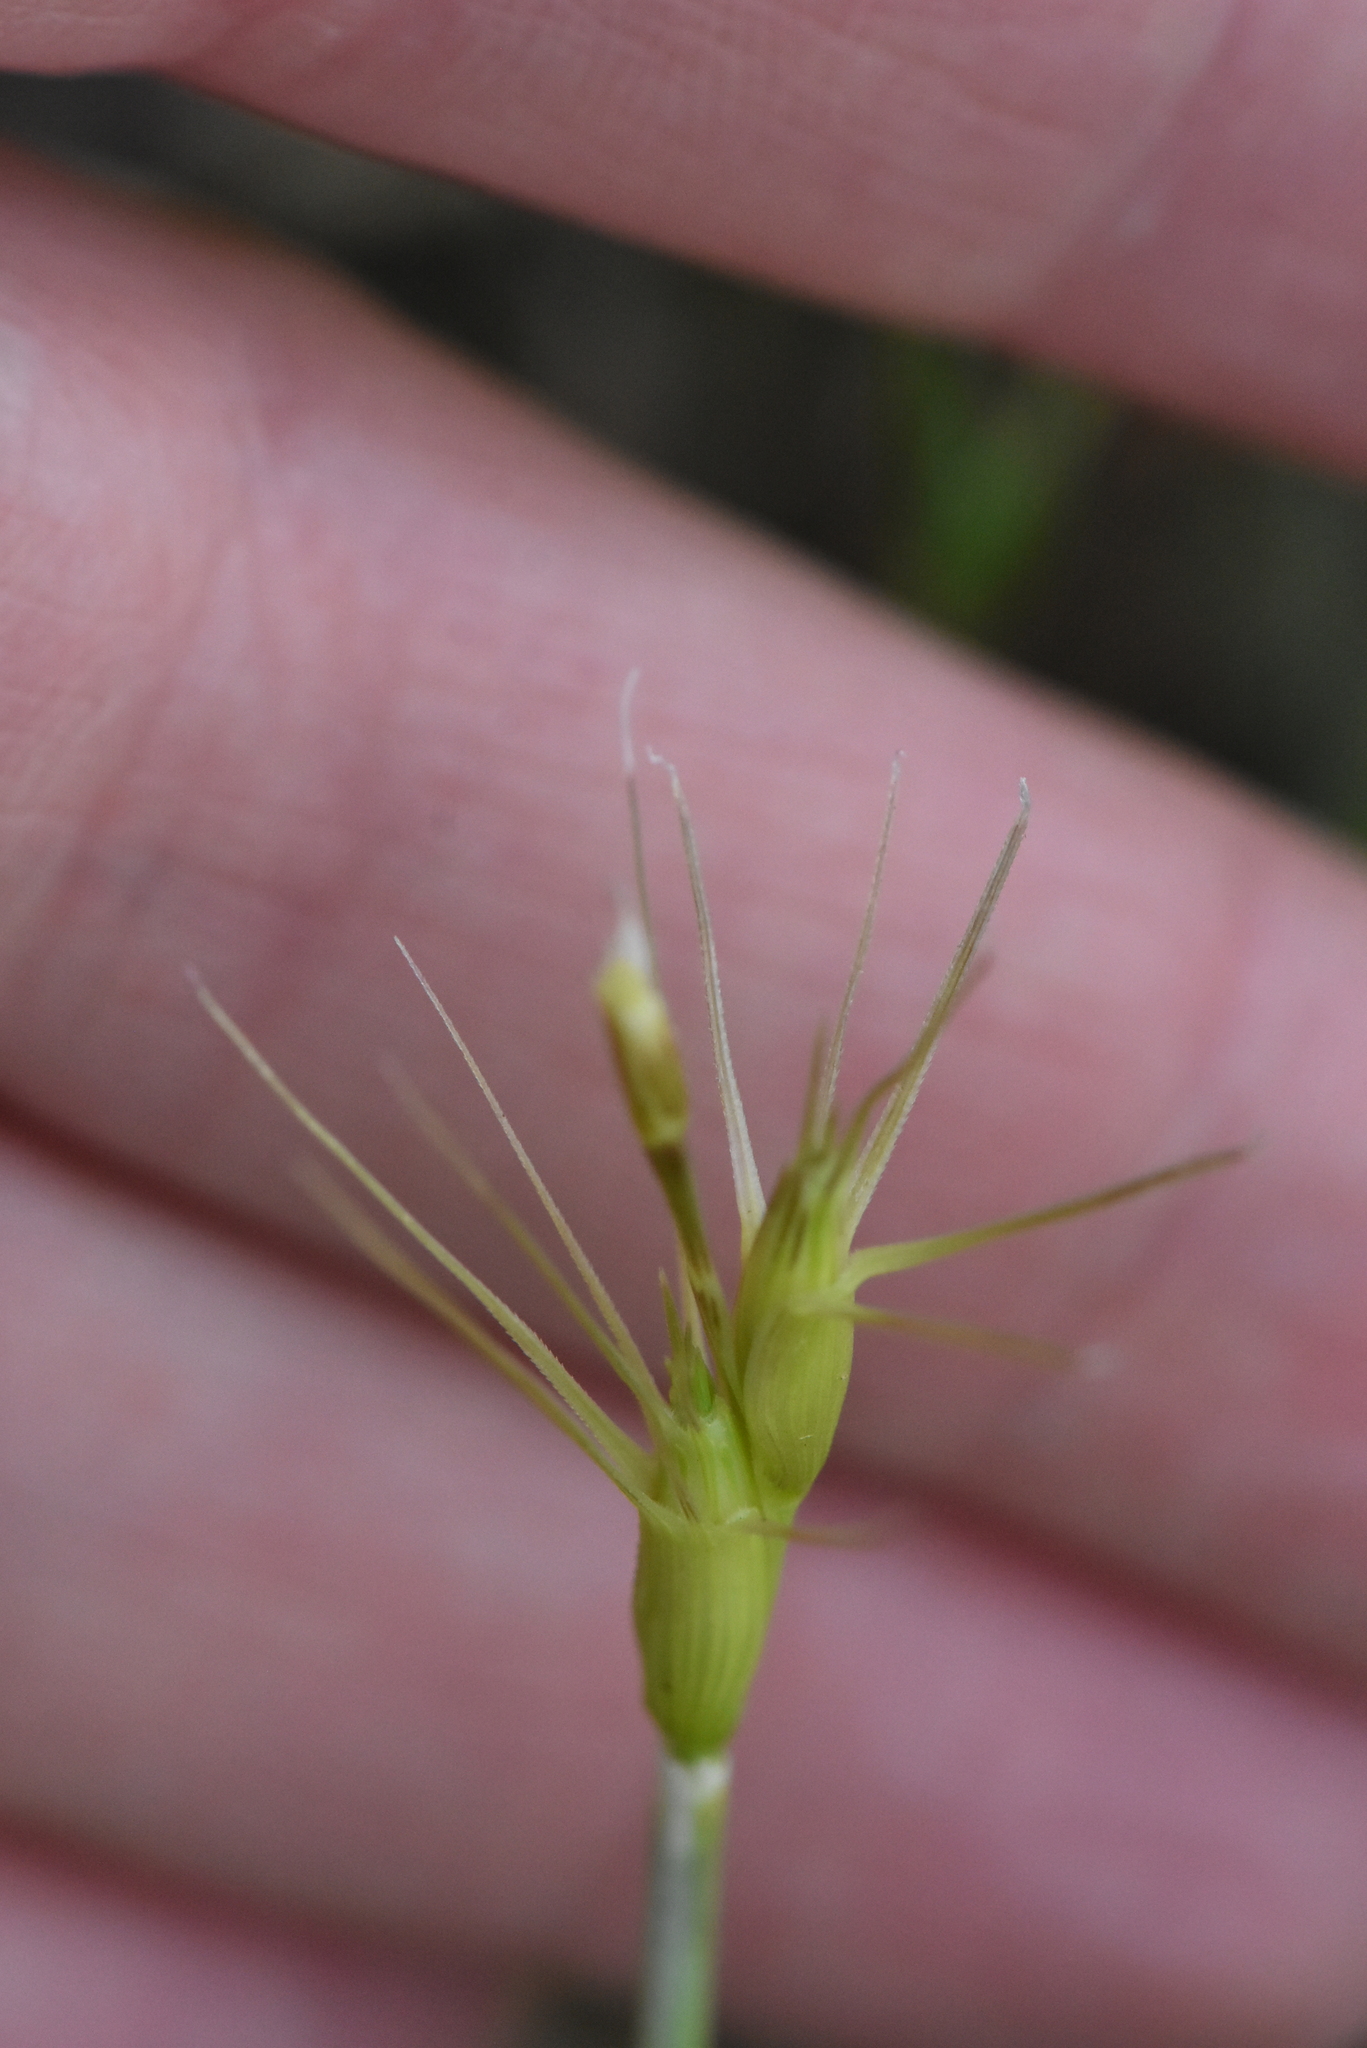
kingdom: Plantae
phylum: Tracheophyta
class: Liliopsida
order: Poales
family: Poaceae
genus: Aegilops
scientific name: Aegilops biuncialis
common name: Mediterranean aegilops
